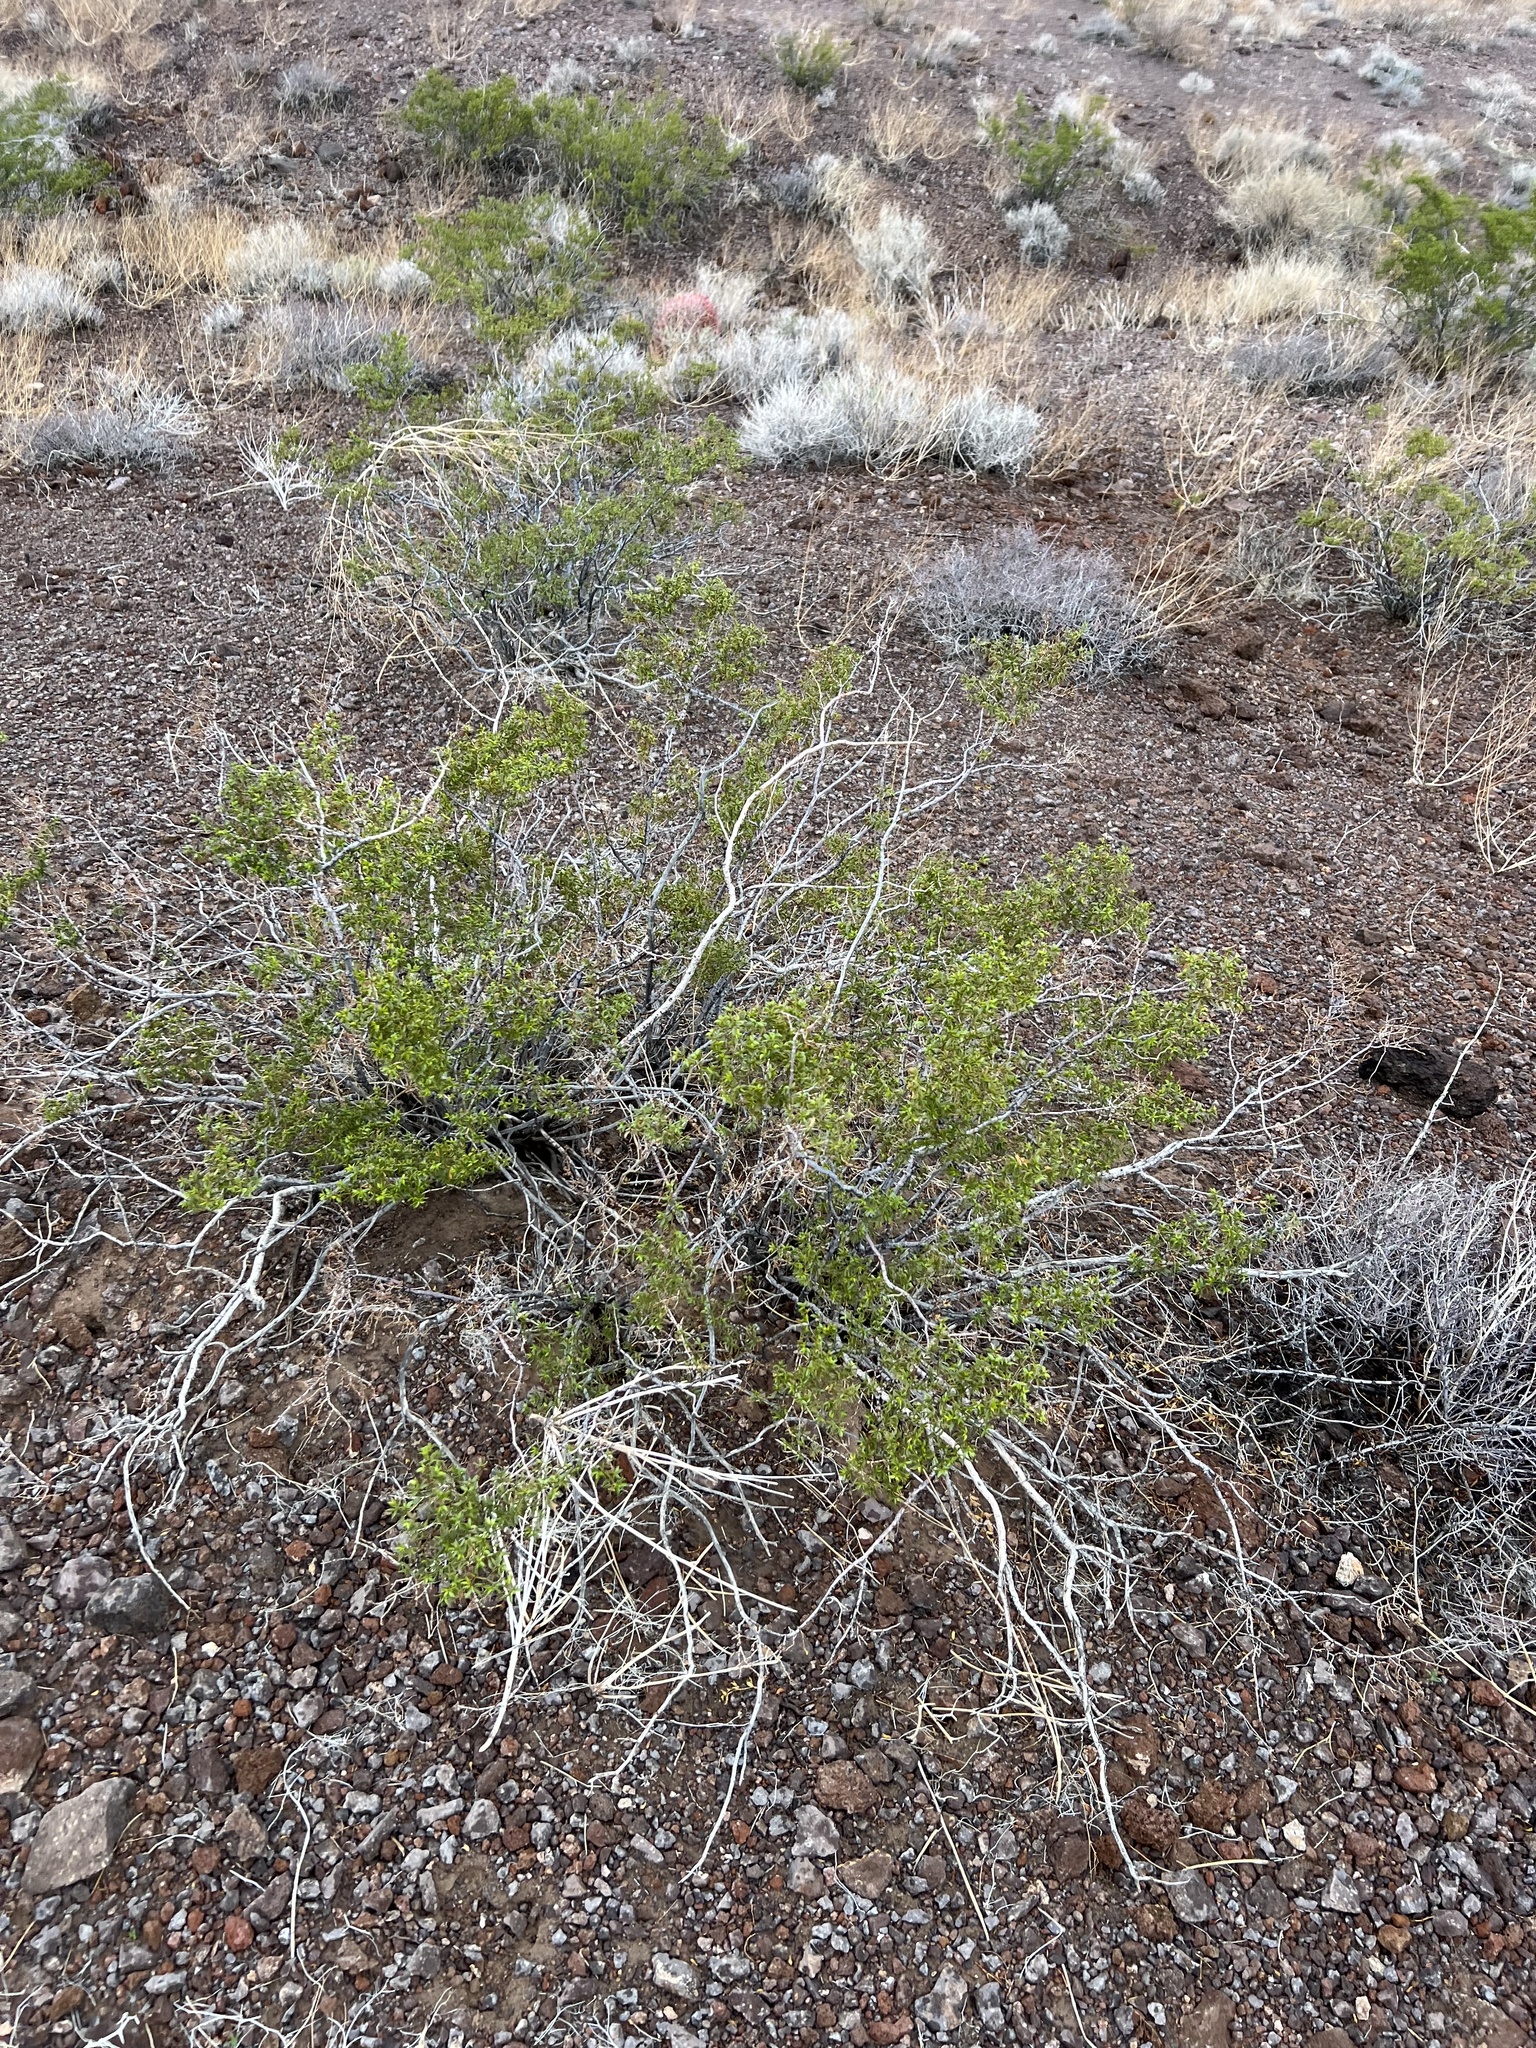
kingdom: Plantae
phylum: Tracheophyta
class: Magnoliopsida
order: Zygophyllales
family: Zygophyllaceae
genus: Larrea
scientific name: Larrea tridentata
